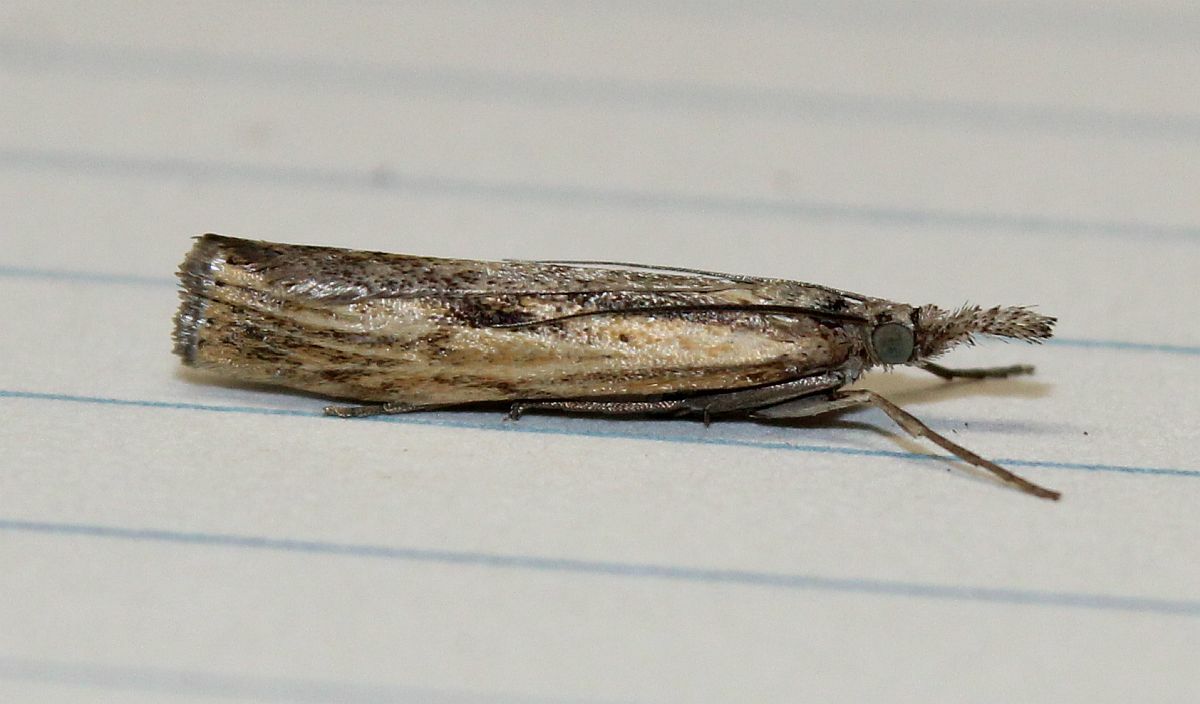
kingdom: Animalia
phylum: Arthropoda
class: Insecta
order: Lepidoptera
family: Crambidae
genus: Agriphila
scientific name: Agriphila inquinatella
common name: Barred grass-veneer
